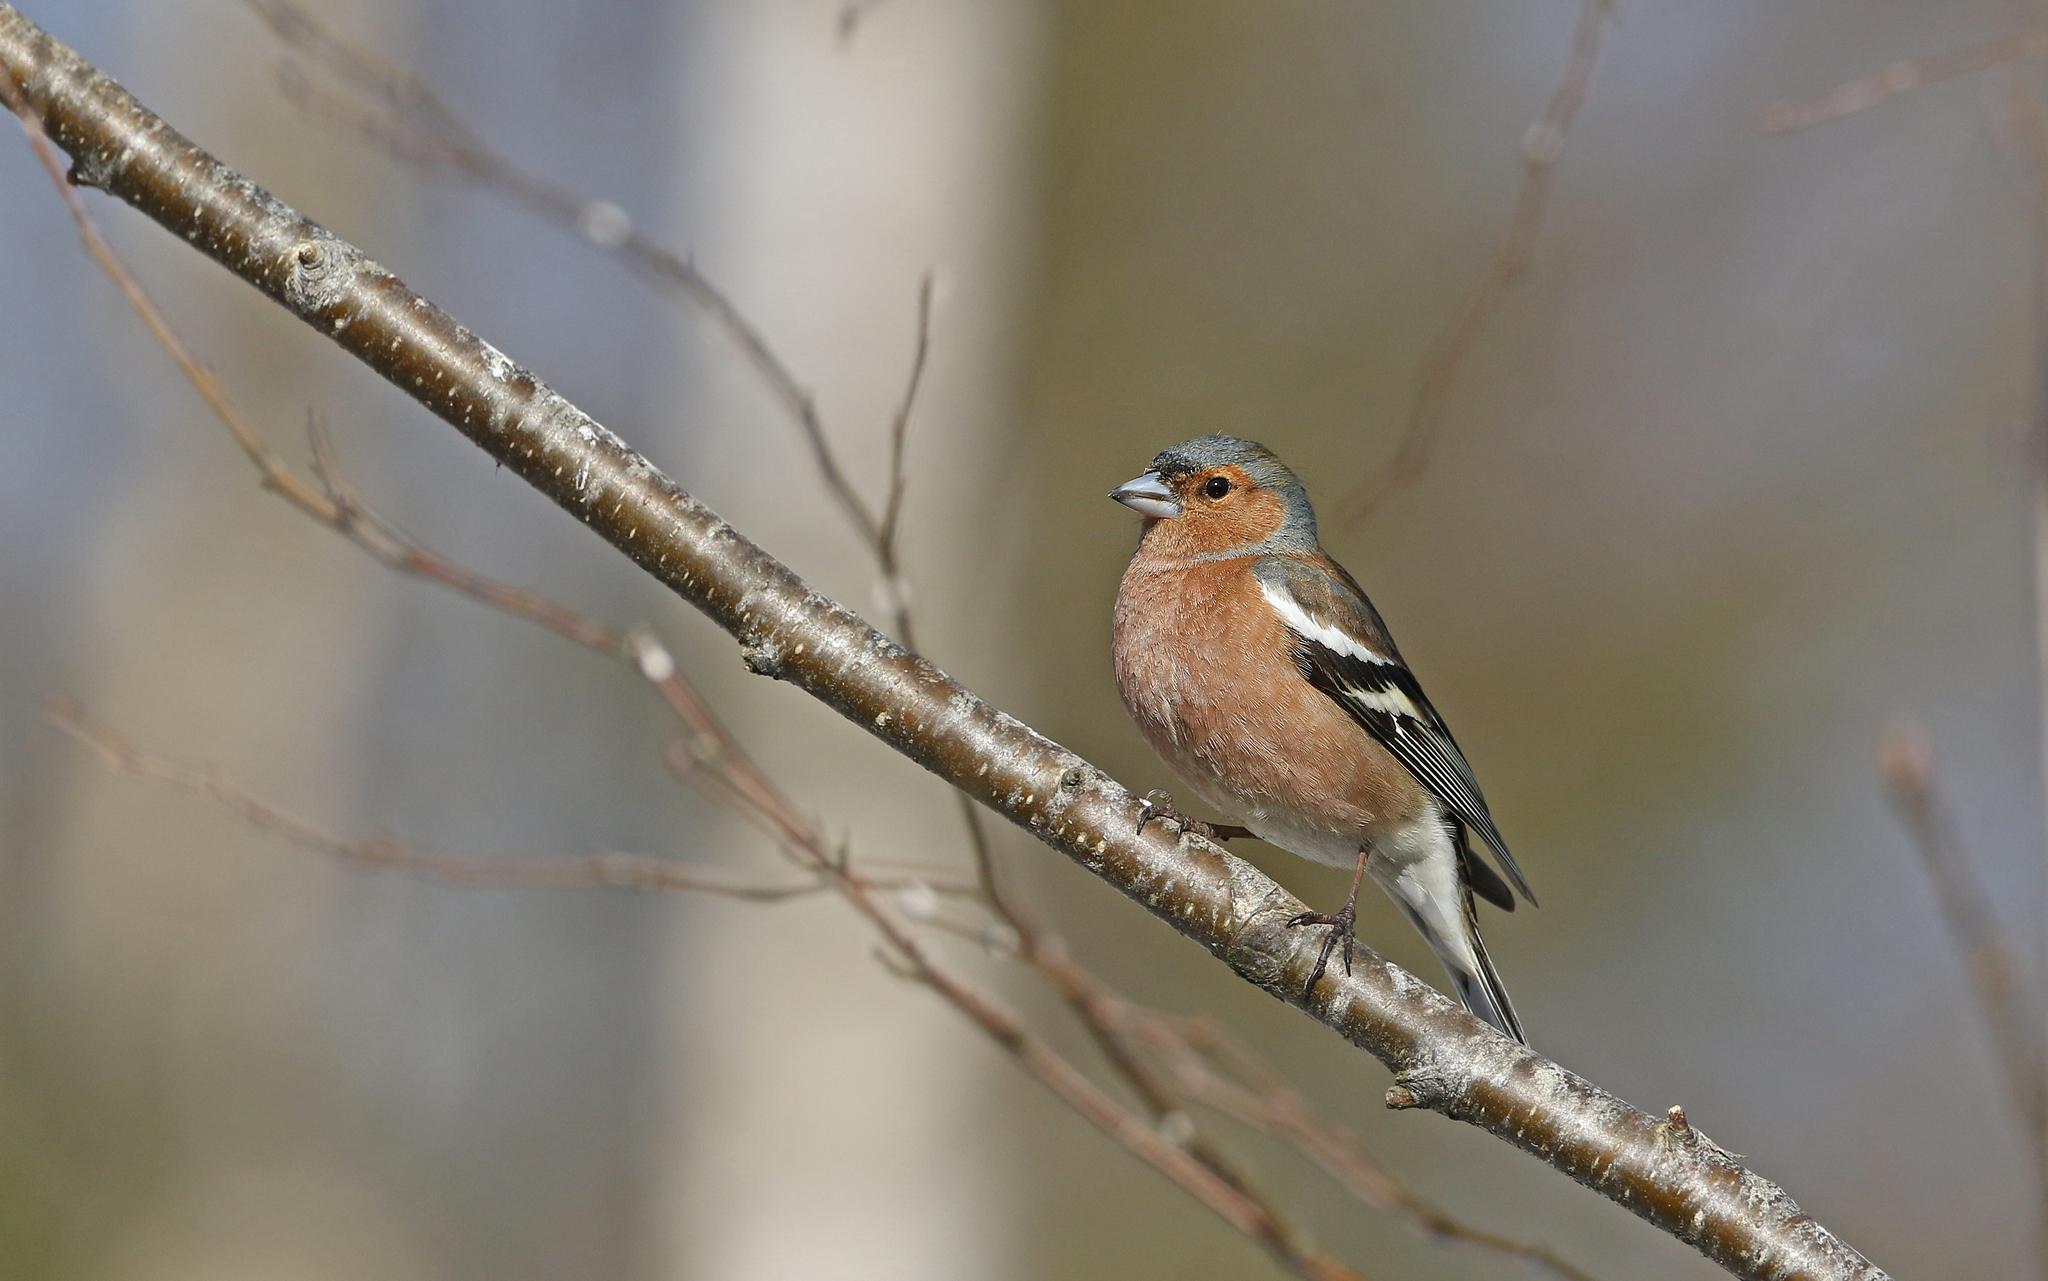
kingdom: Animalia
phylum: Chordata
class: Aves
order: Passeriformes
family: Fringillidae
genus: Fringilla
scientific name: Fringilla coelebs
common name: Common chaffinch
